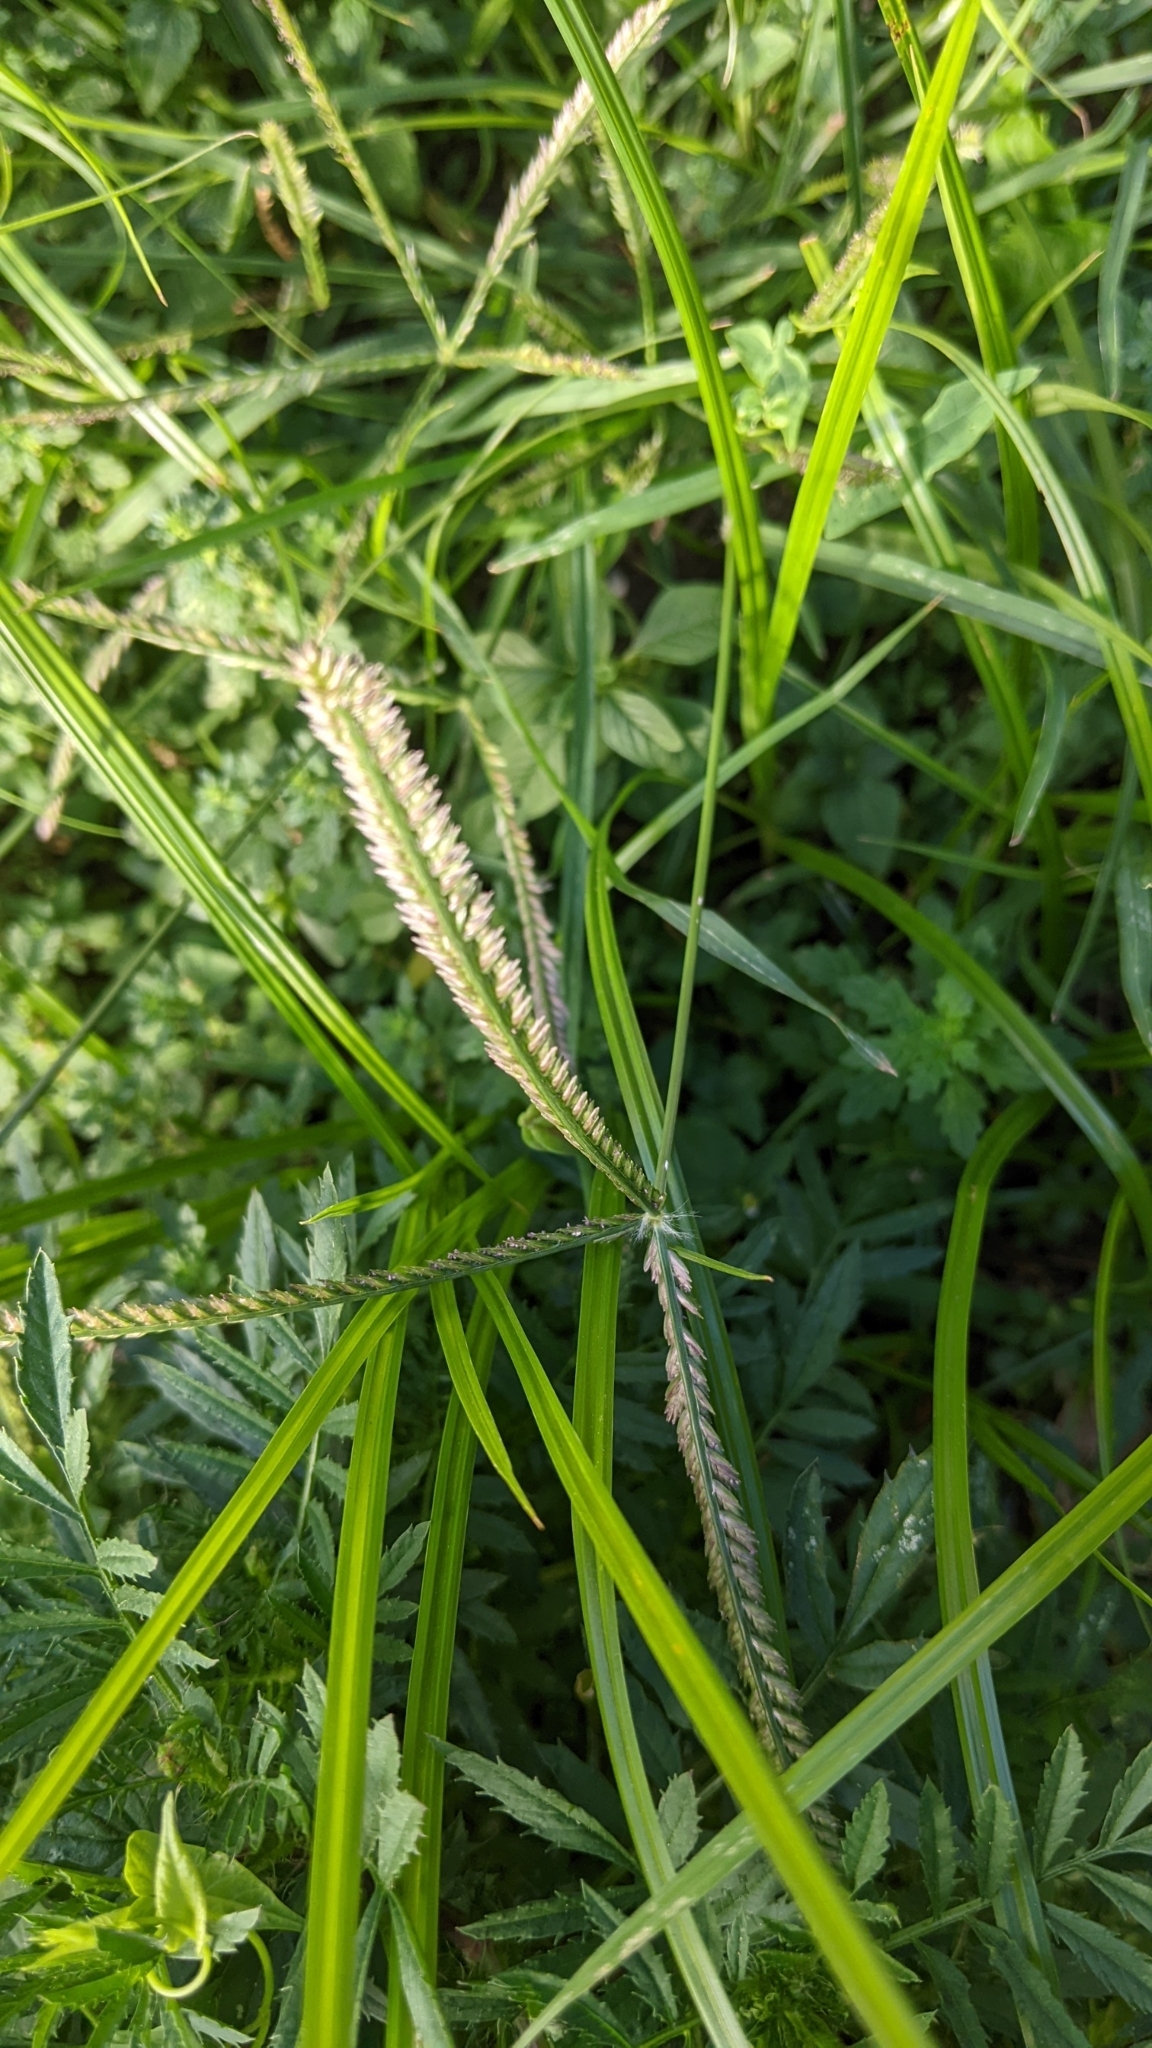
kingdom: Plantae
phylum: Tracheophyta
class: Liliopsida
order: Poales
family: Poaceae
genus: Eleusine
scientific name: Eleusine indica
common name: Yard-grass
